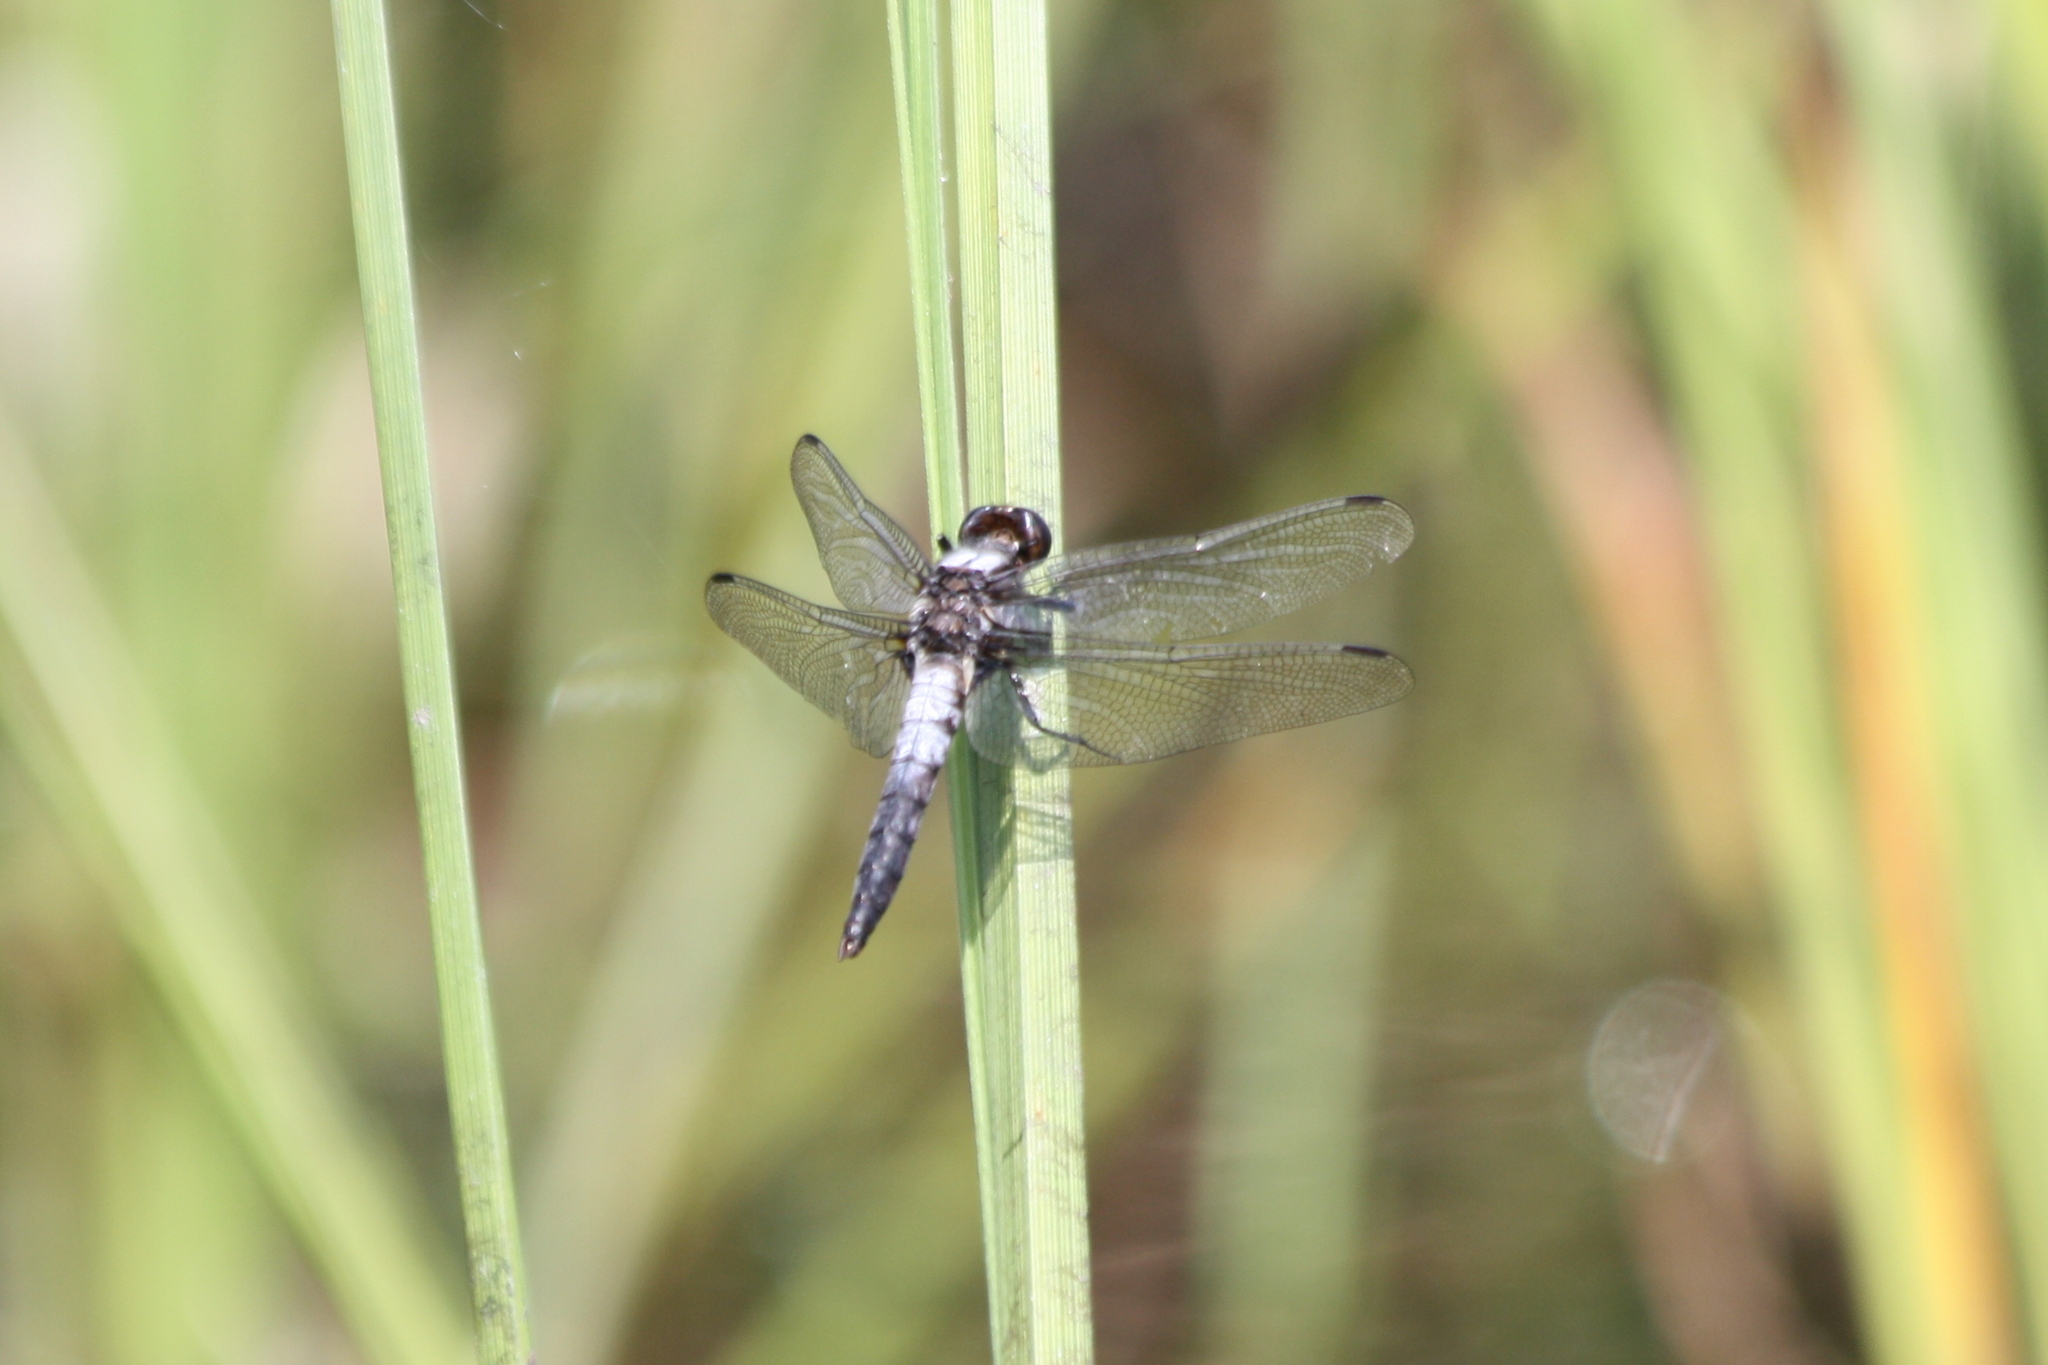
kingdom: Animalia
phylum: Arthropoda
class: Insecta
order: Odonata
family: Libellulidae
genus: Ladona
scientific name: Ladona julia
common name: Chalk-fronted corporal
